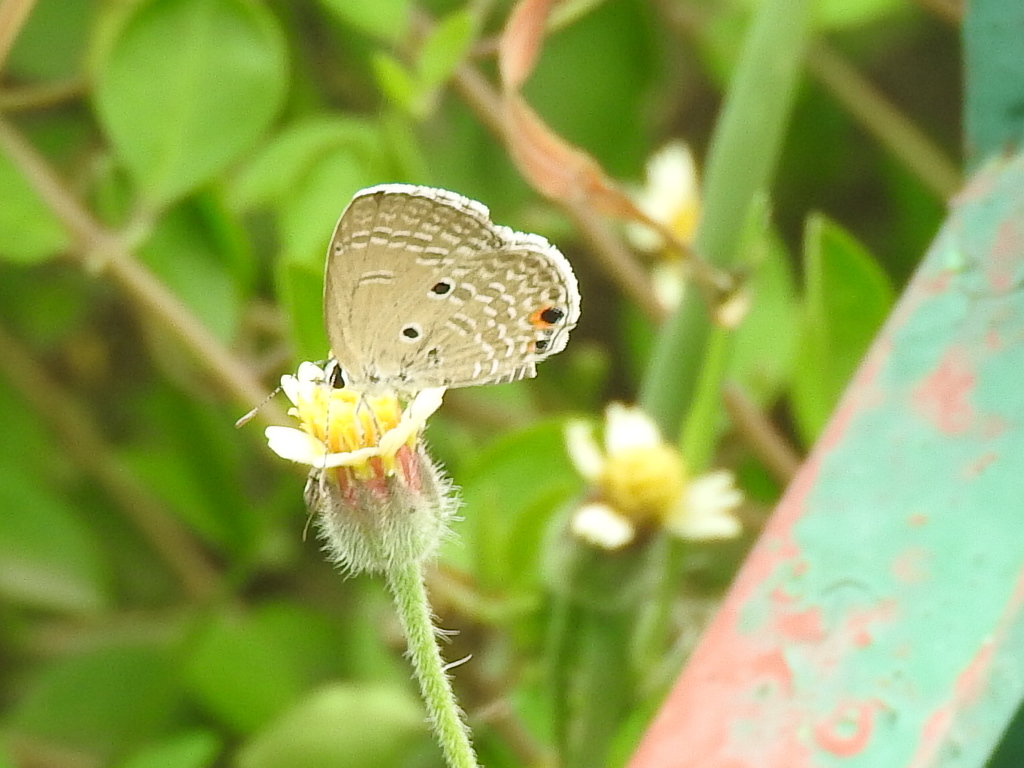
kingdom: Animalia
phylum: Arthropoda
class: Insecta
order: Lepidoptera
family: Lycaenidae
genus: Luthrodes
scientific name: Luthrodes pandava
